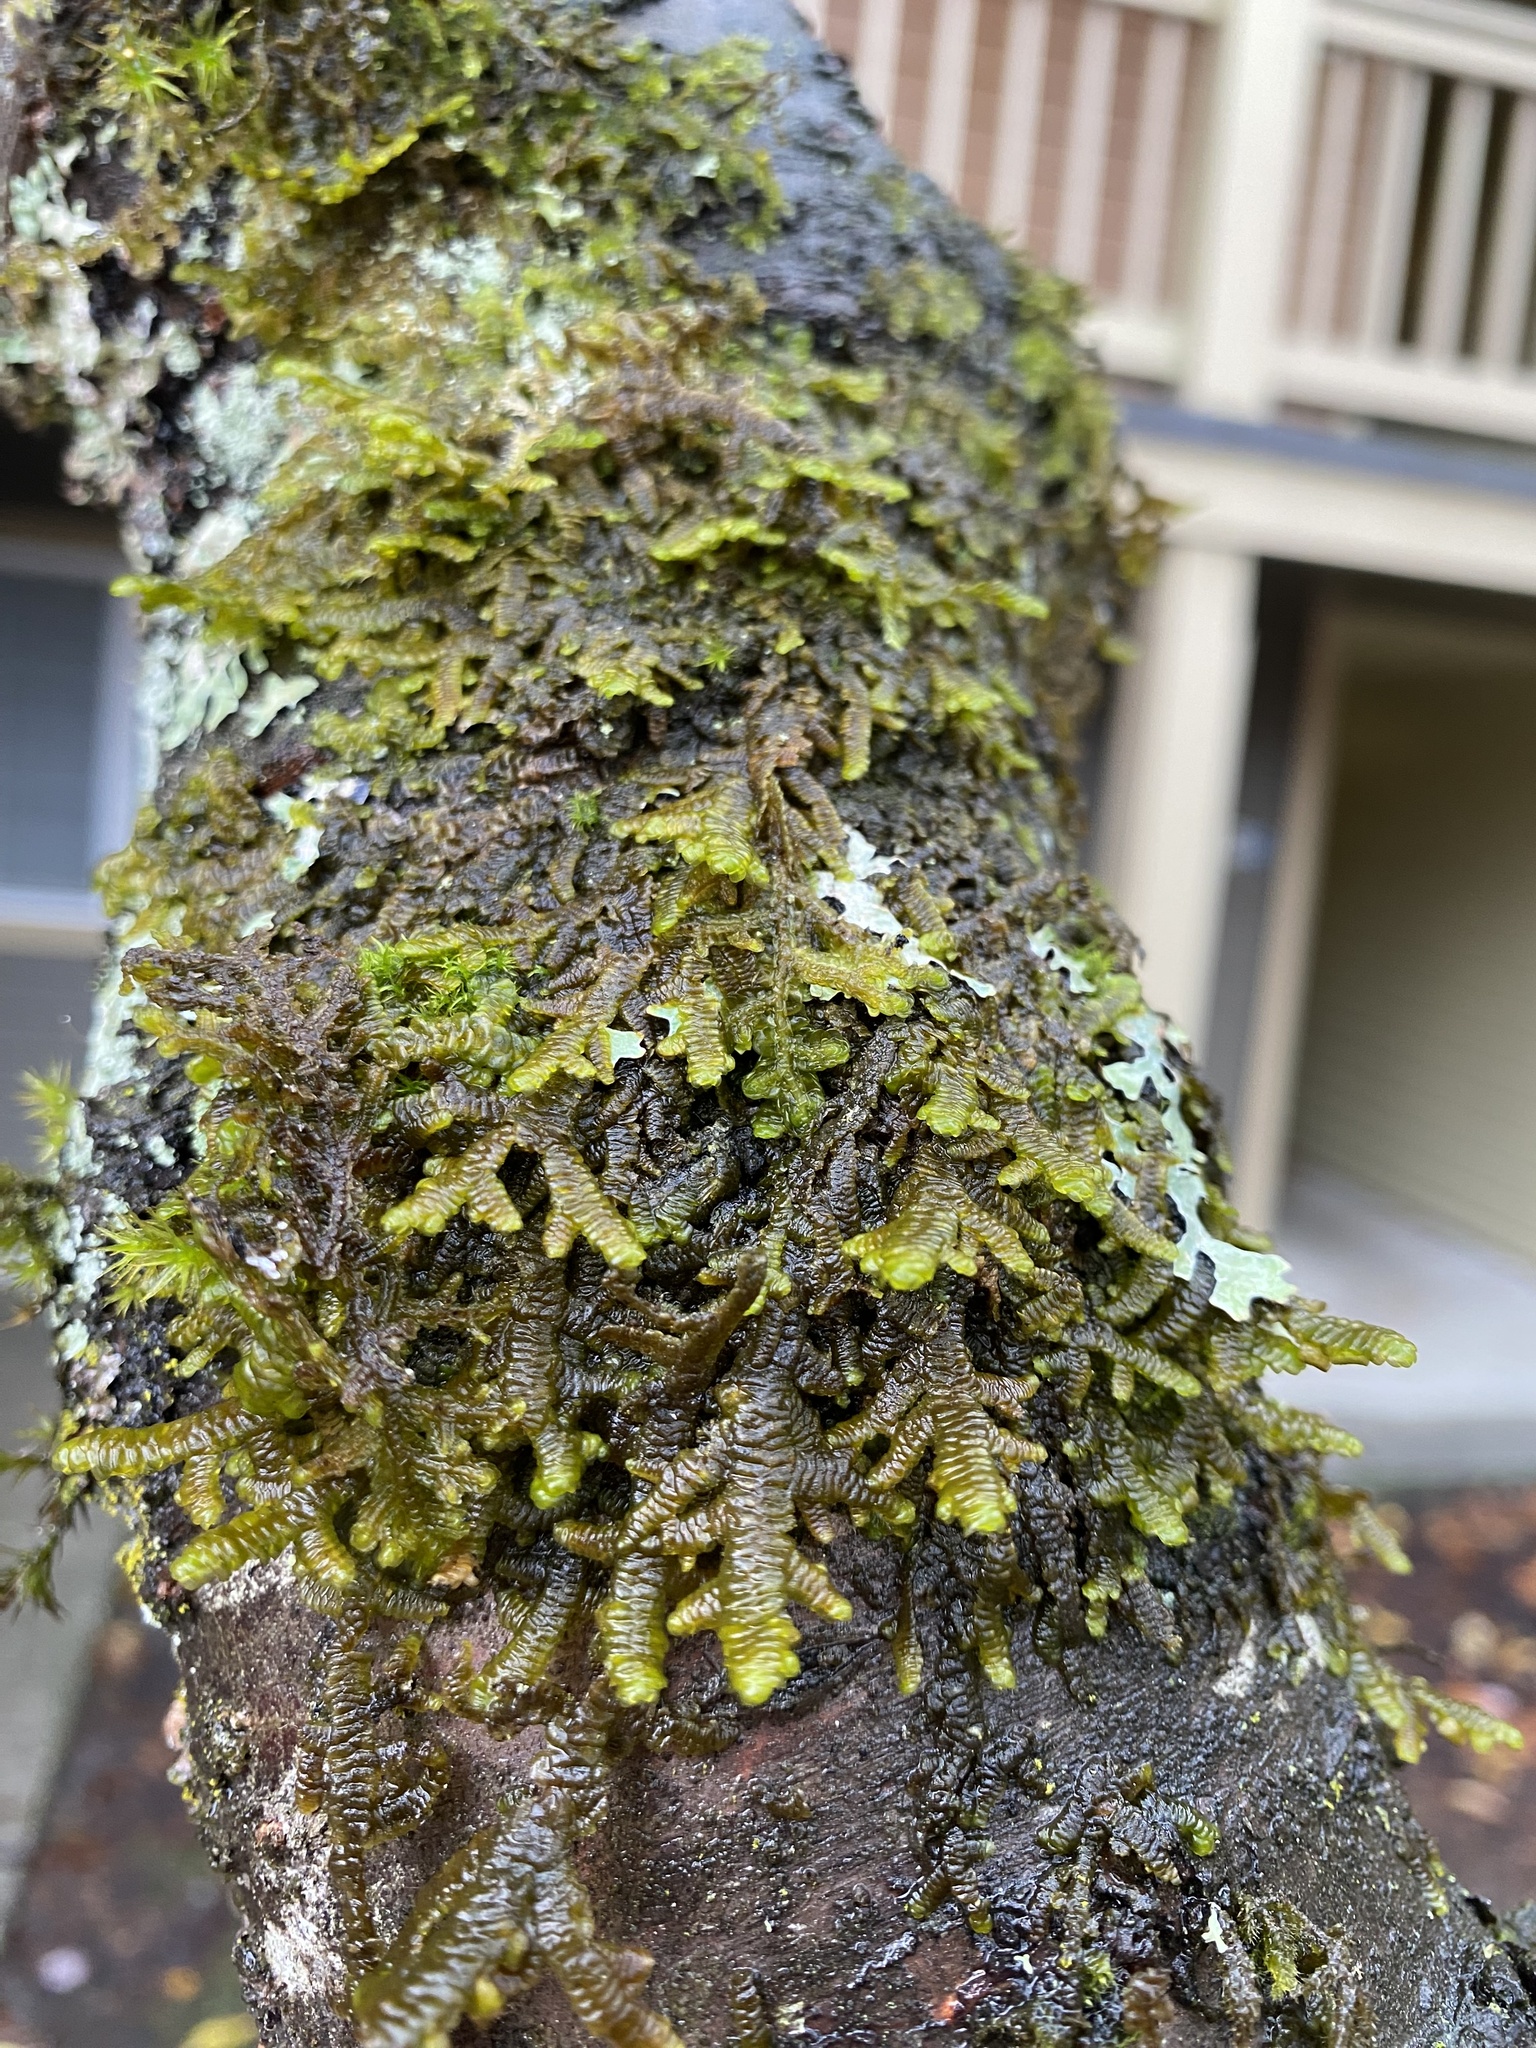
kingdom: Plantae
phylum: Marchantiophyta
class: Jungermanniopsida
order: Porellales
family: Porellaceae
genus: Porella
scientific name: Porella navicularis
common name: Tree ruffle liverwort
